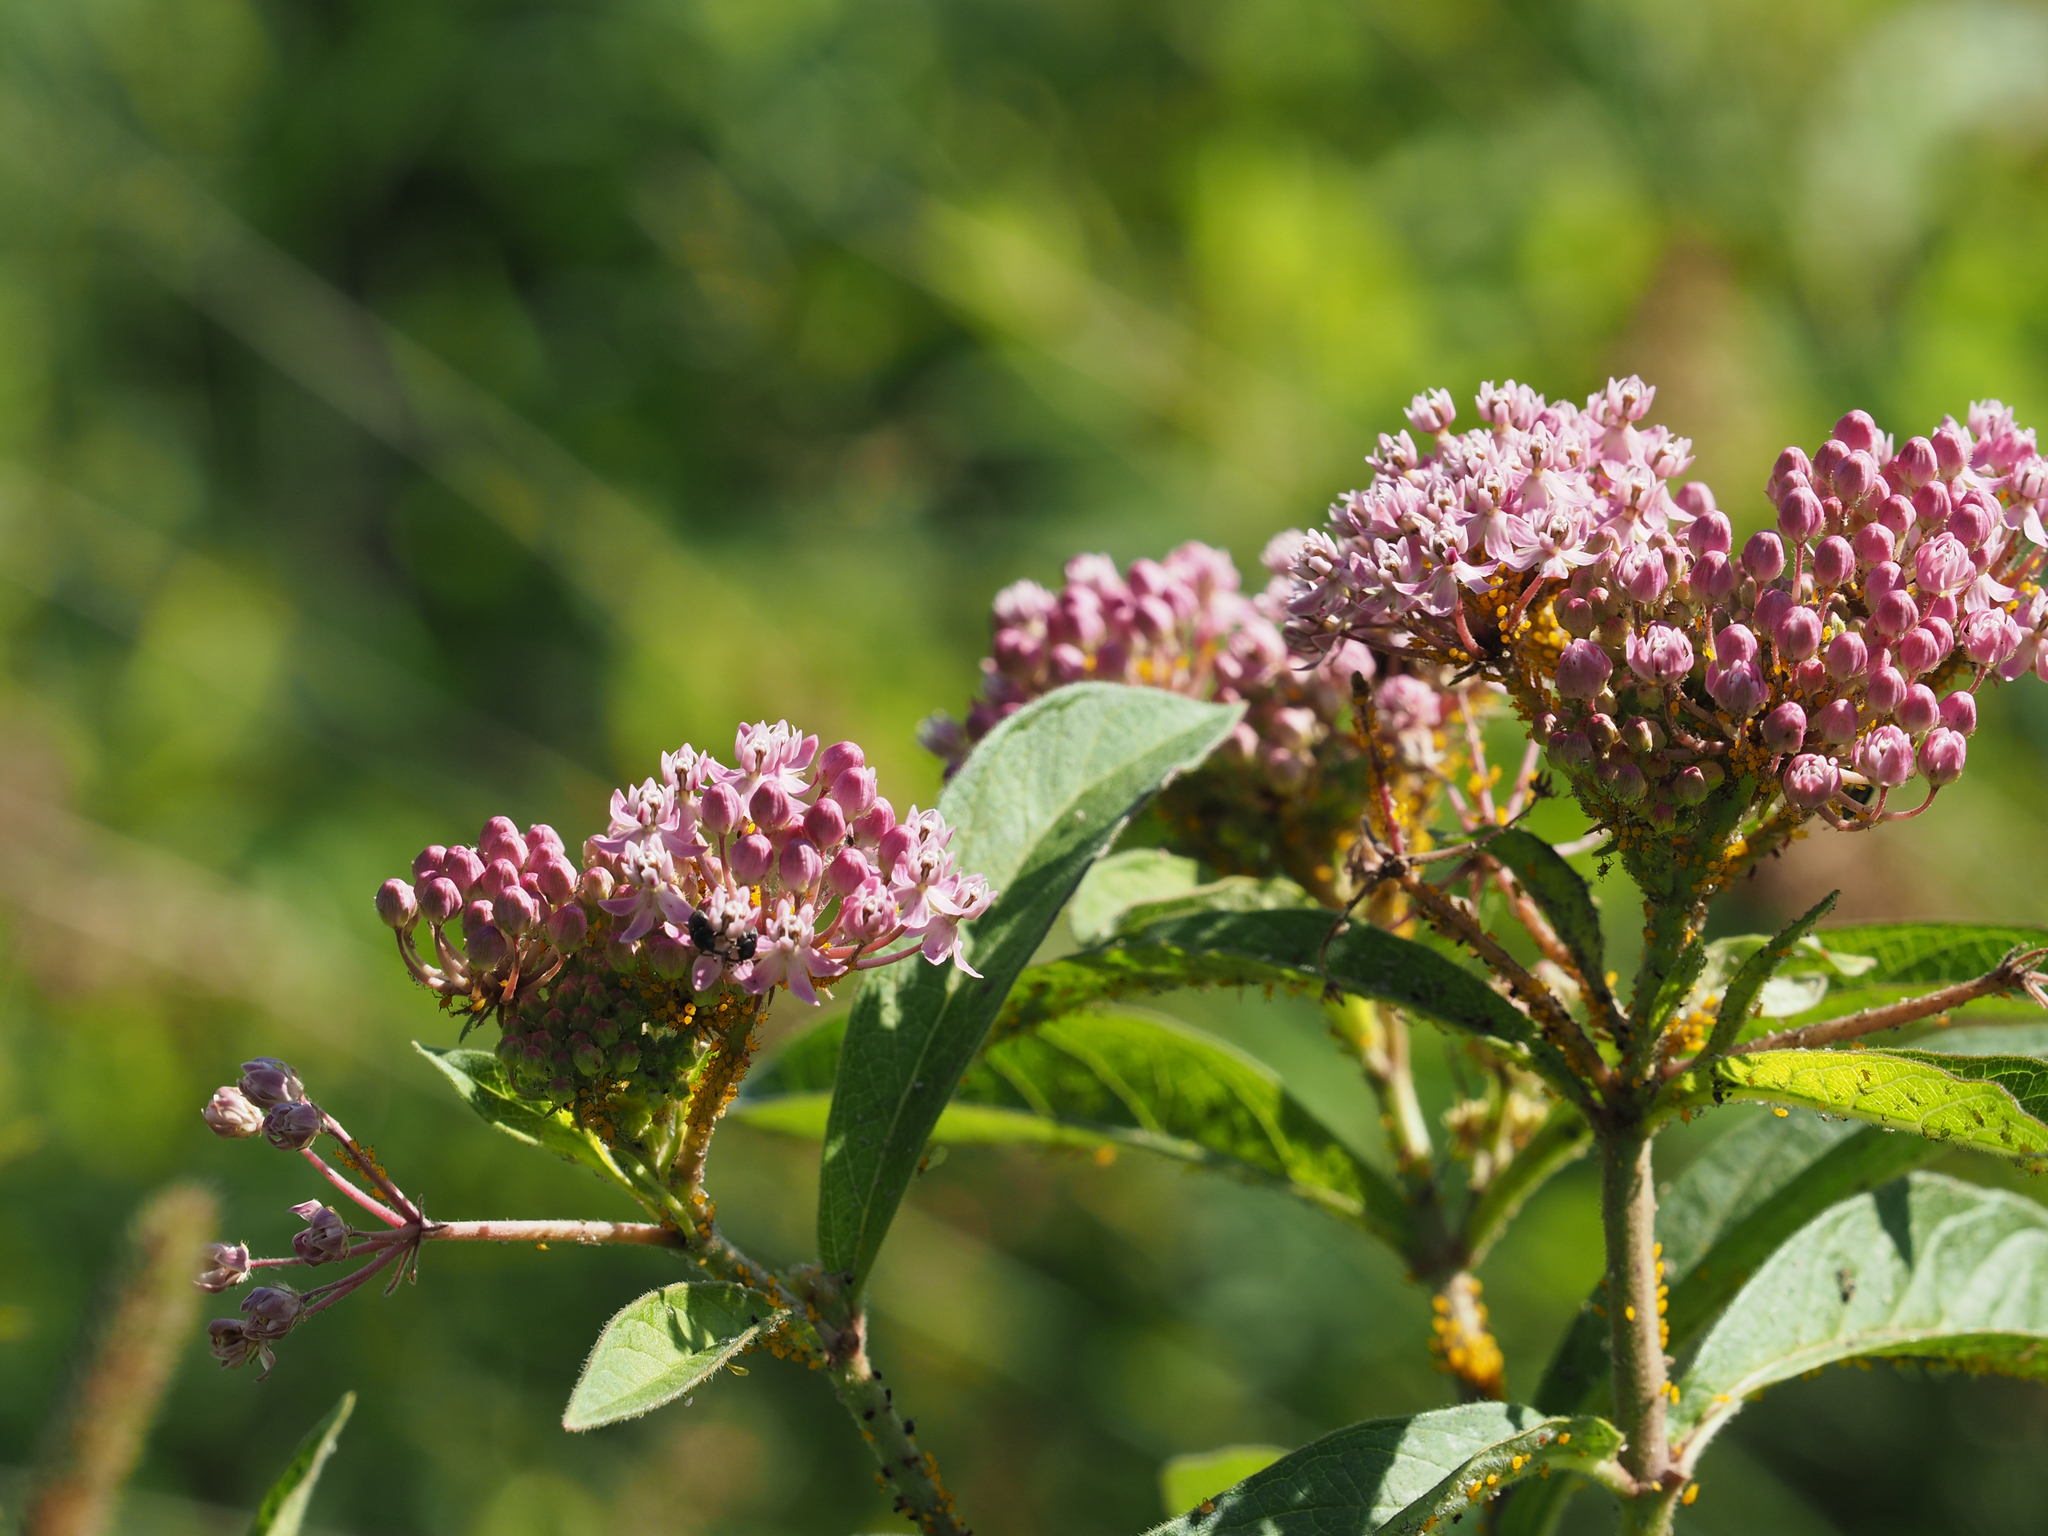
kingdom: Plantae
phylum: Tracheophyta
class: Magnoliopsida
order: Gentianales
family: Apocynaceae
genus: Asclepias
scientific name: Asclepias incarnata
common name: Swamp milkweed
